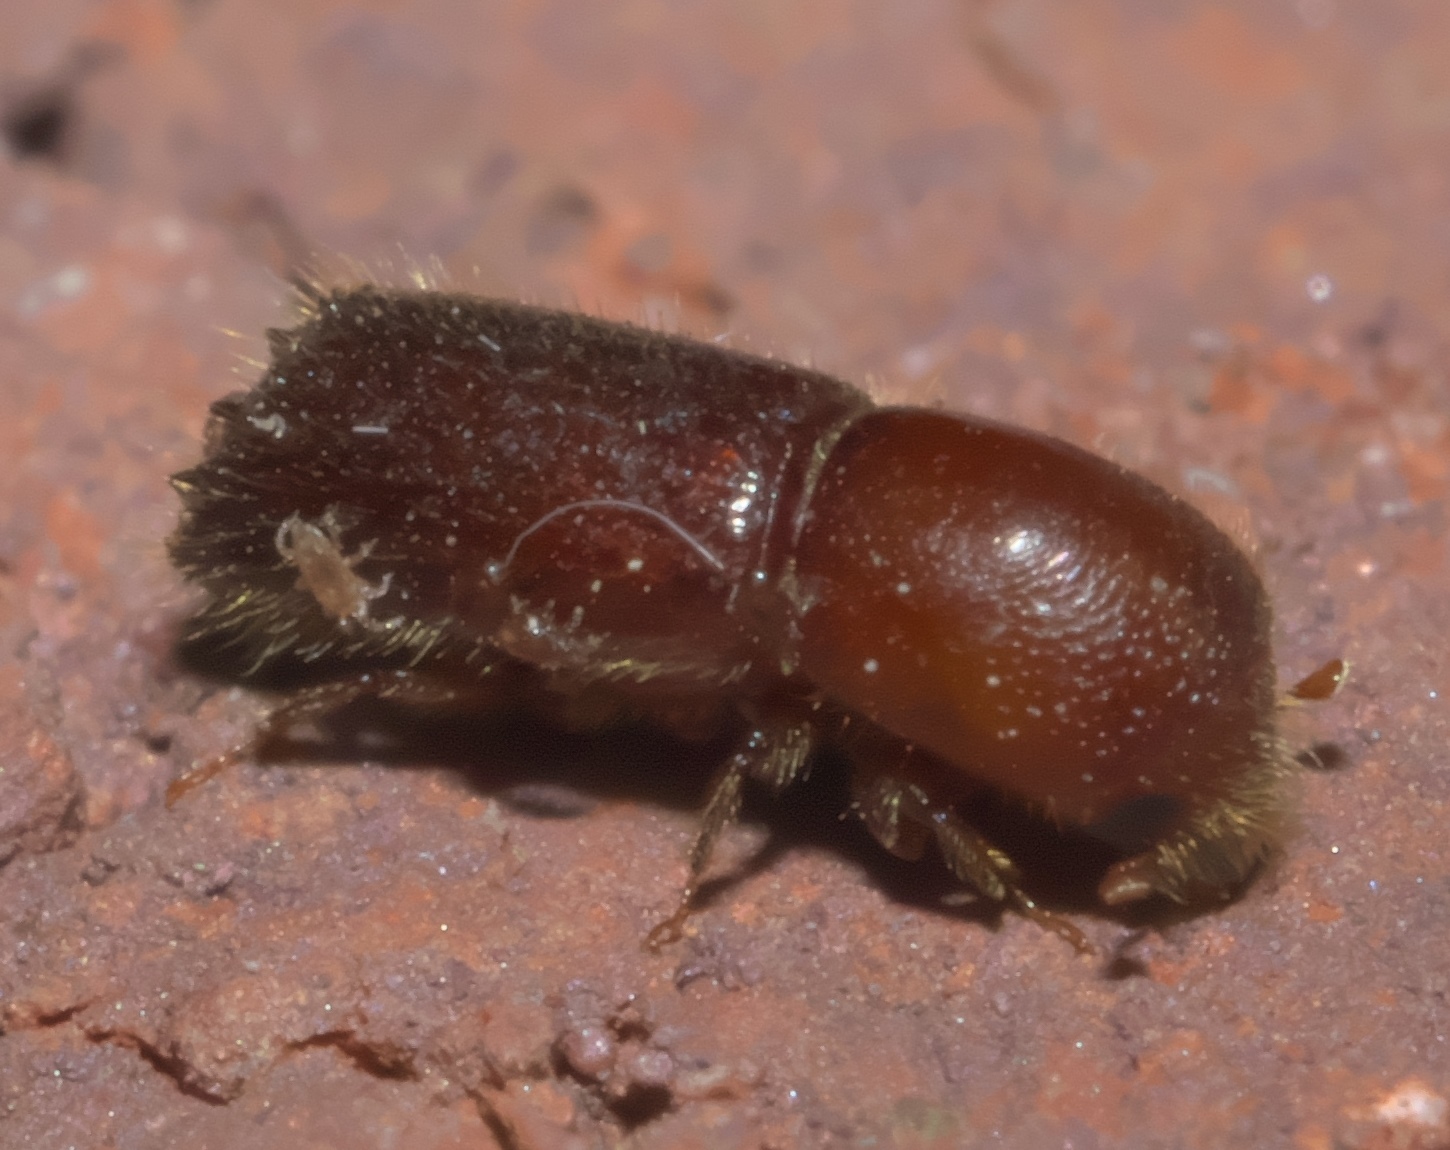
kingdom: Animalia
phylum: Arthropoda
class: Insecta
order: Coleoptera
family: Curculionidae
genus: Xyleborus
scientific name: Xyleborus celsus
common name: Weevil
